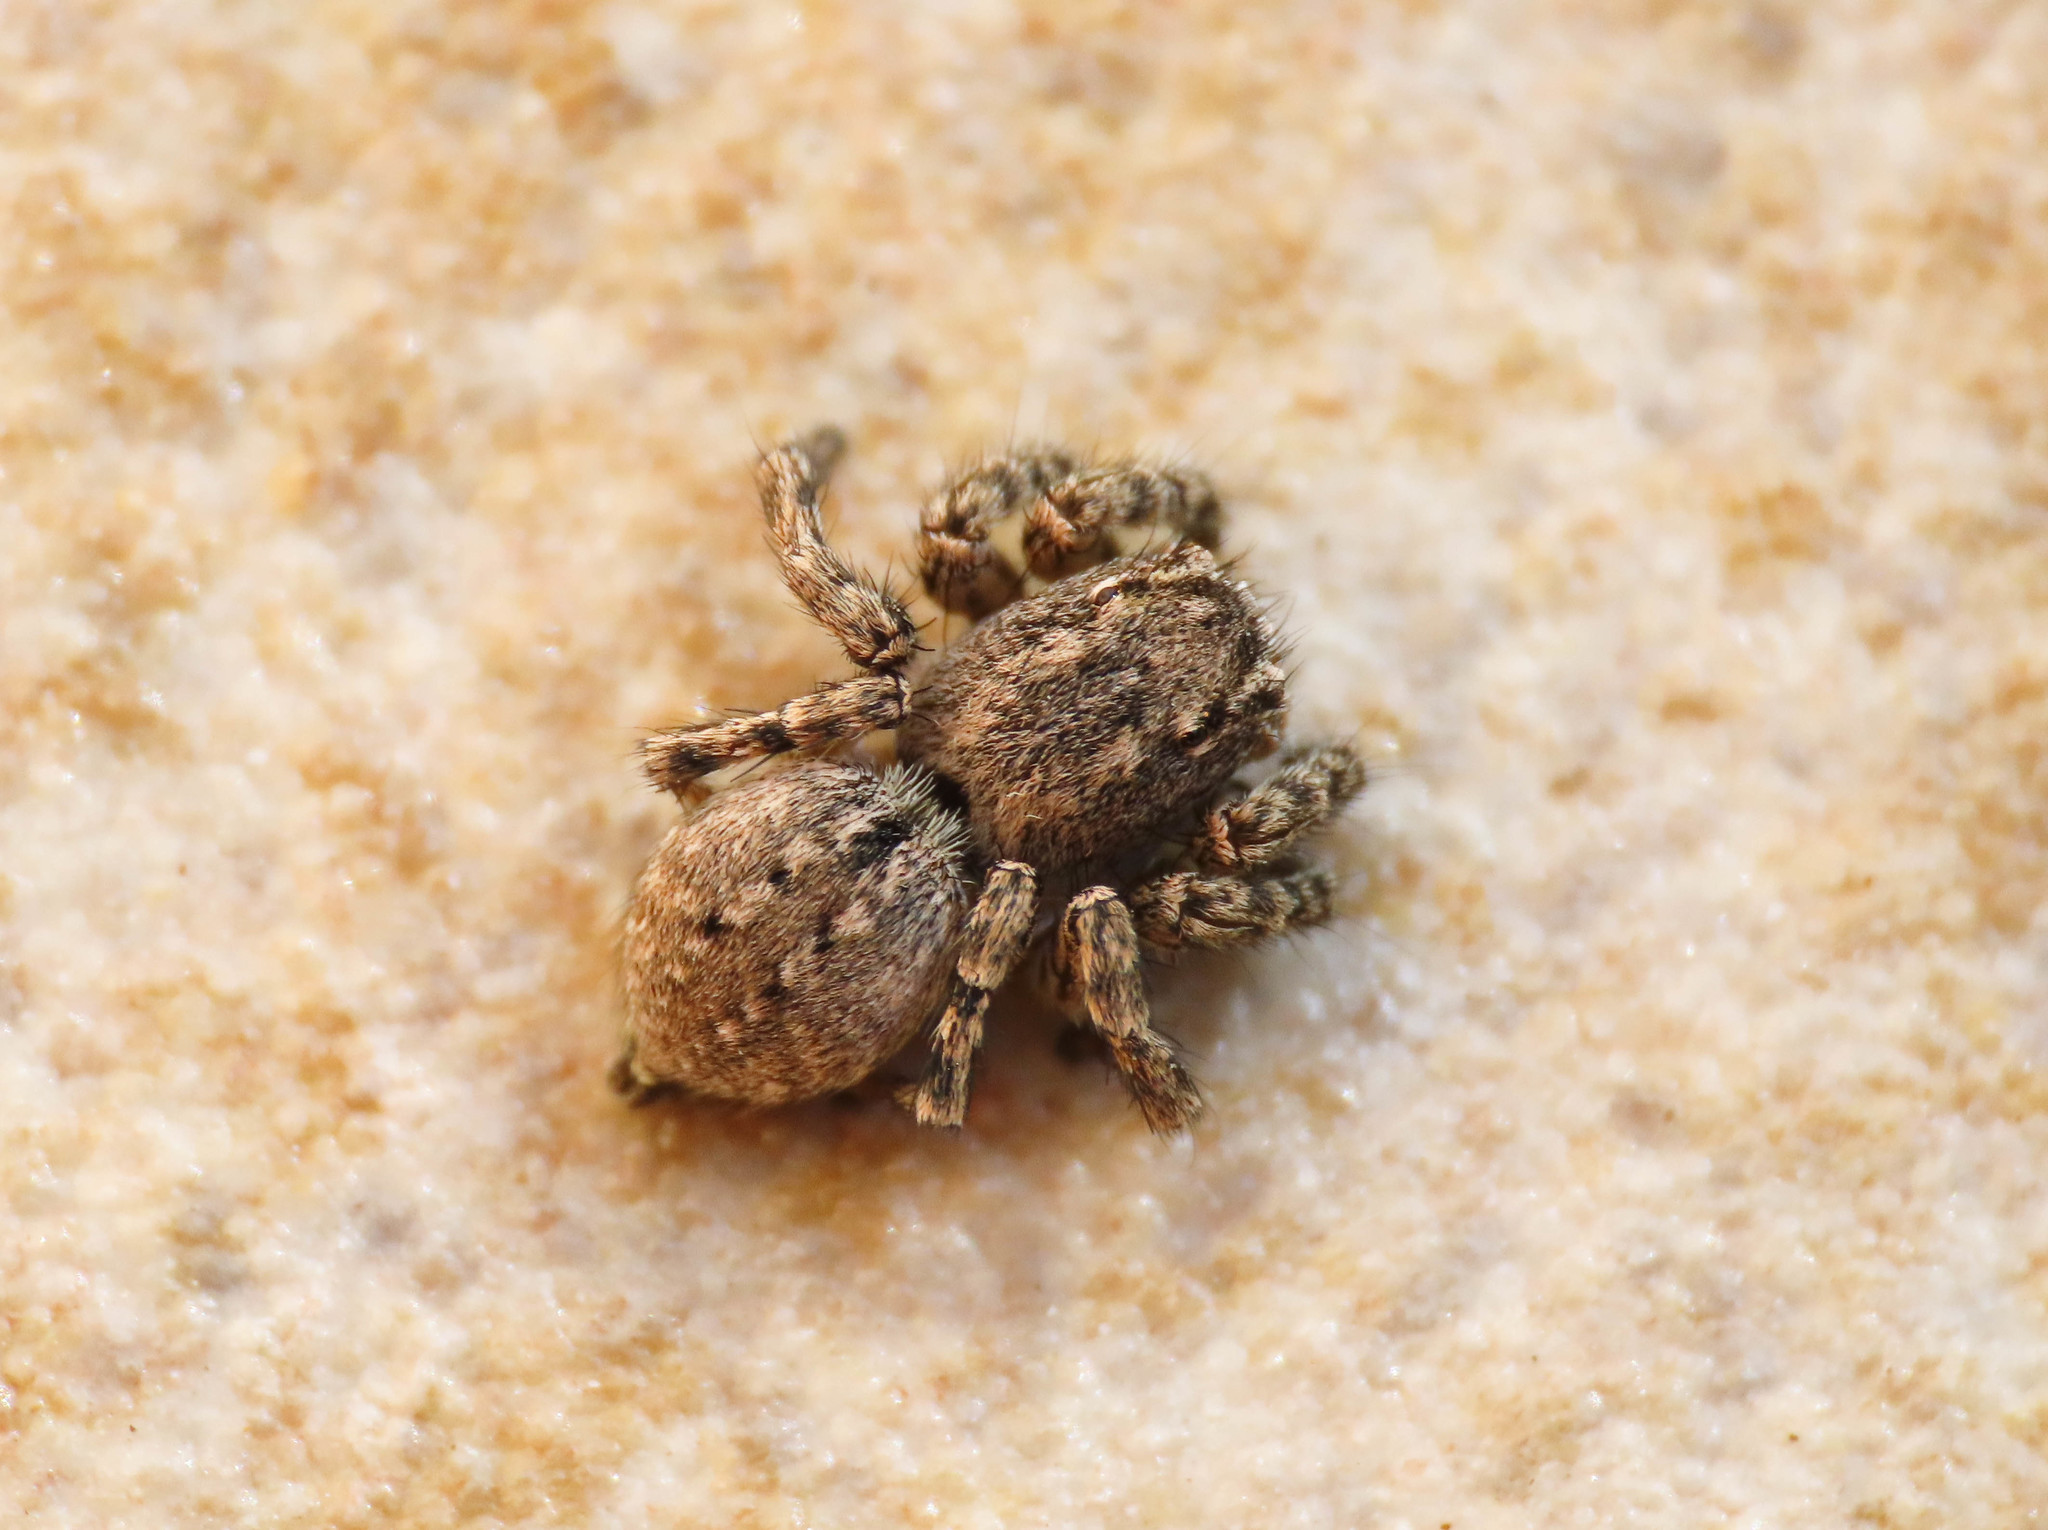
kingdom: Animalia
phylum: Arthropoda
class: Arachnida
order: Araneae
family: Salticidae
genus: Aelurillus
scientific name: Aelurillus v-insignitus
